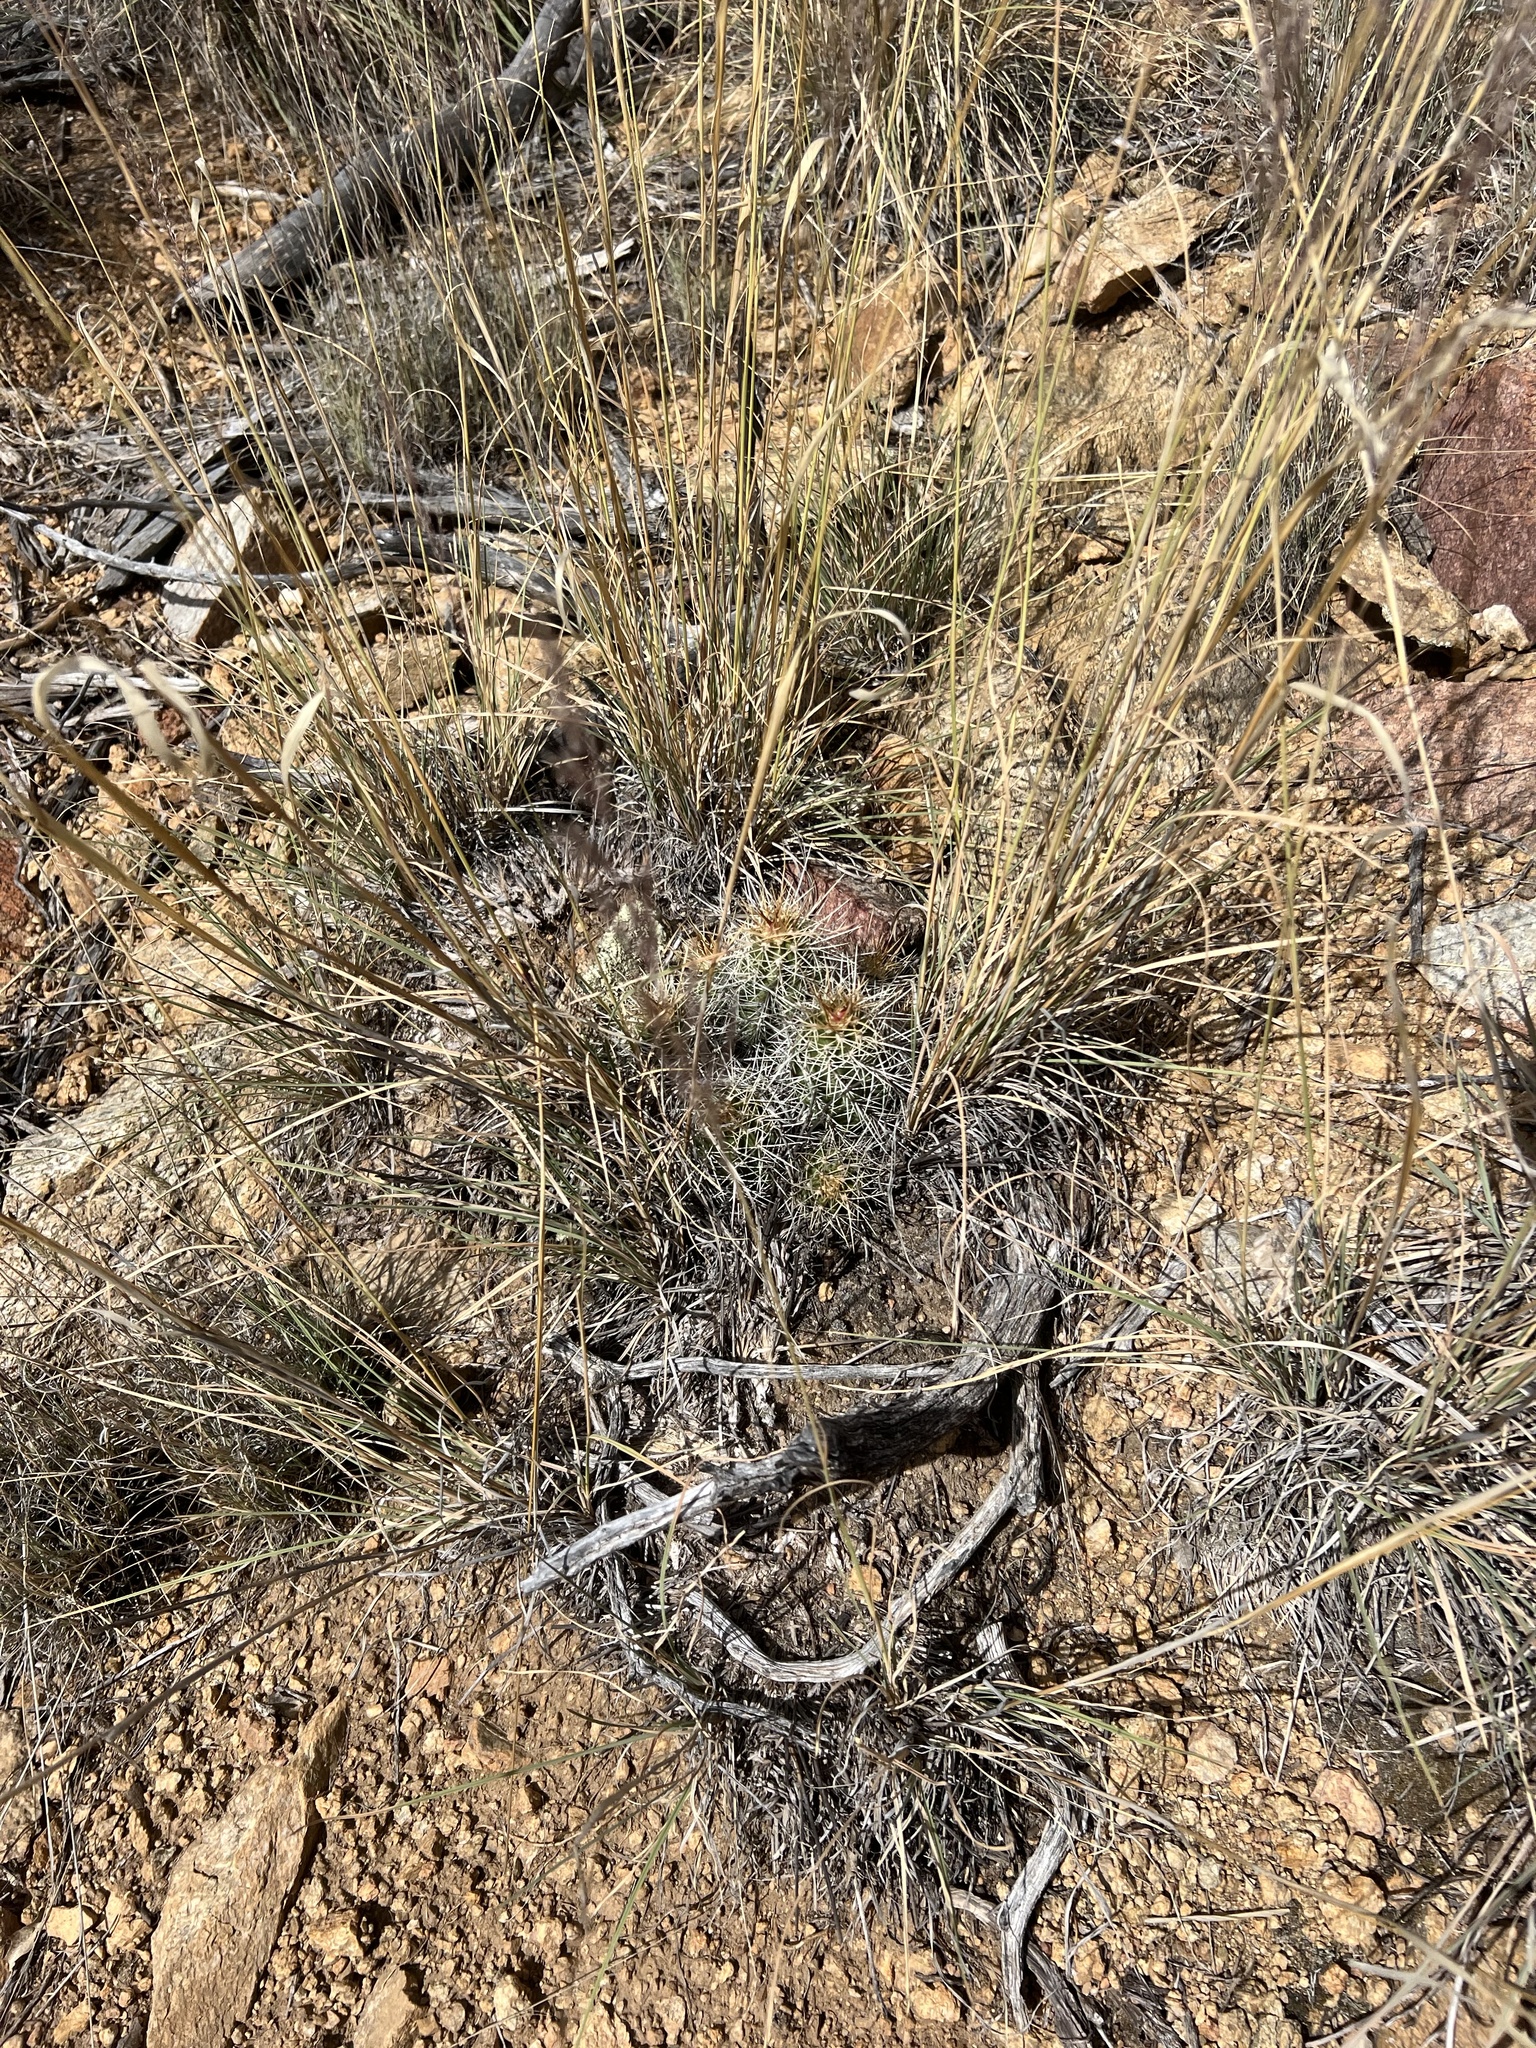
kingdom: Plantae
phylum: Tracheophyta
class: Magnoliopsida
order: Caryophyllales
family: Cactaceae
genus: Echinocereus
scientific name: Echinocereus bakeri
